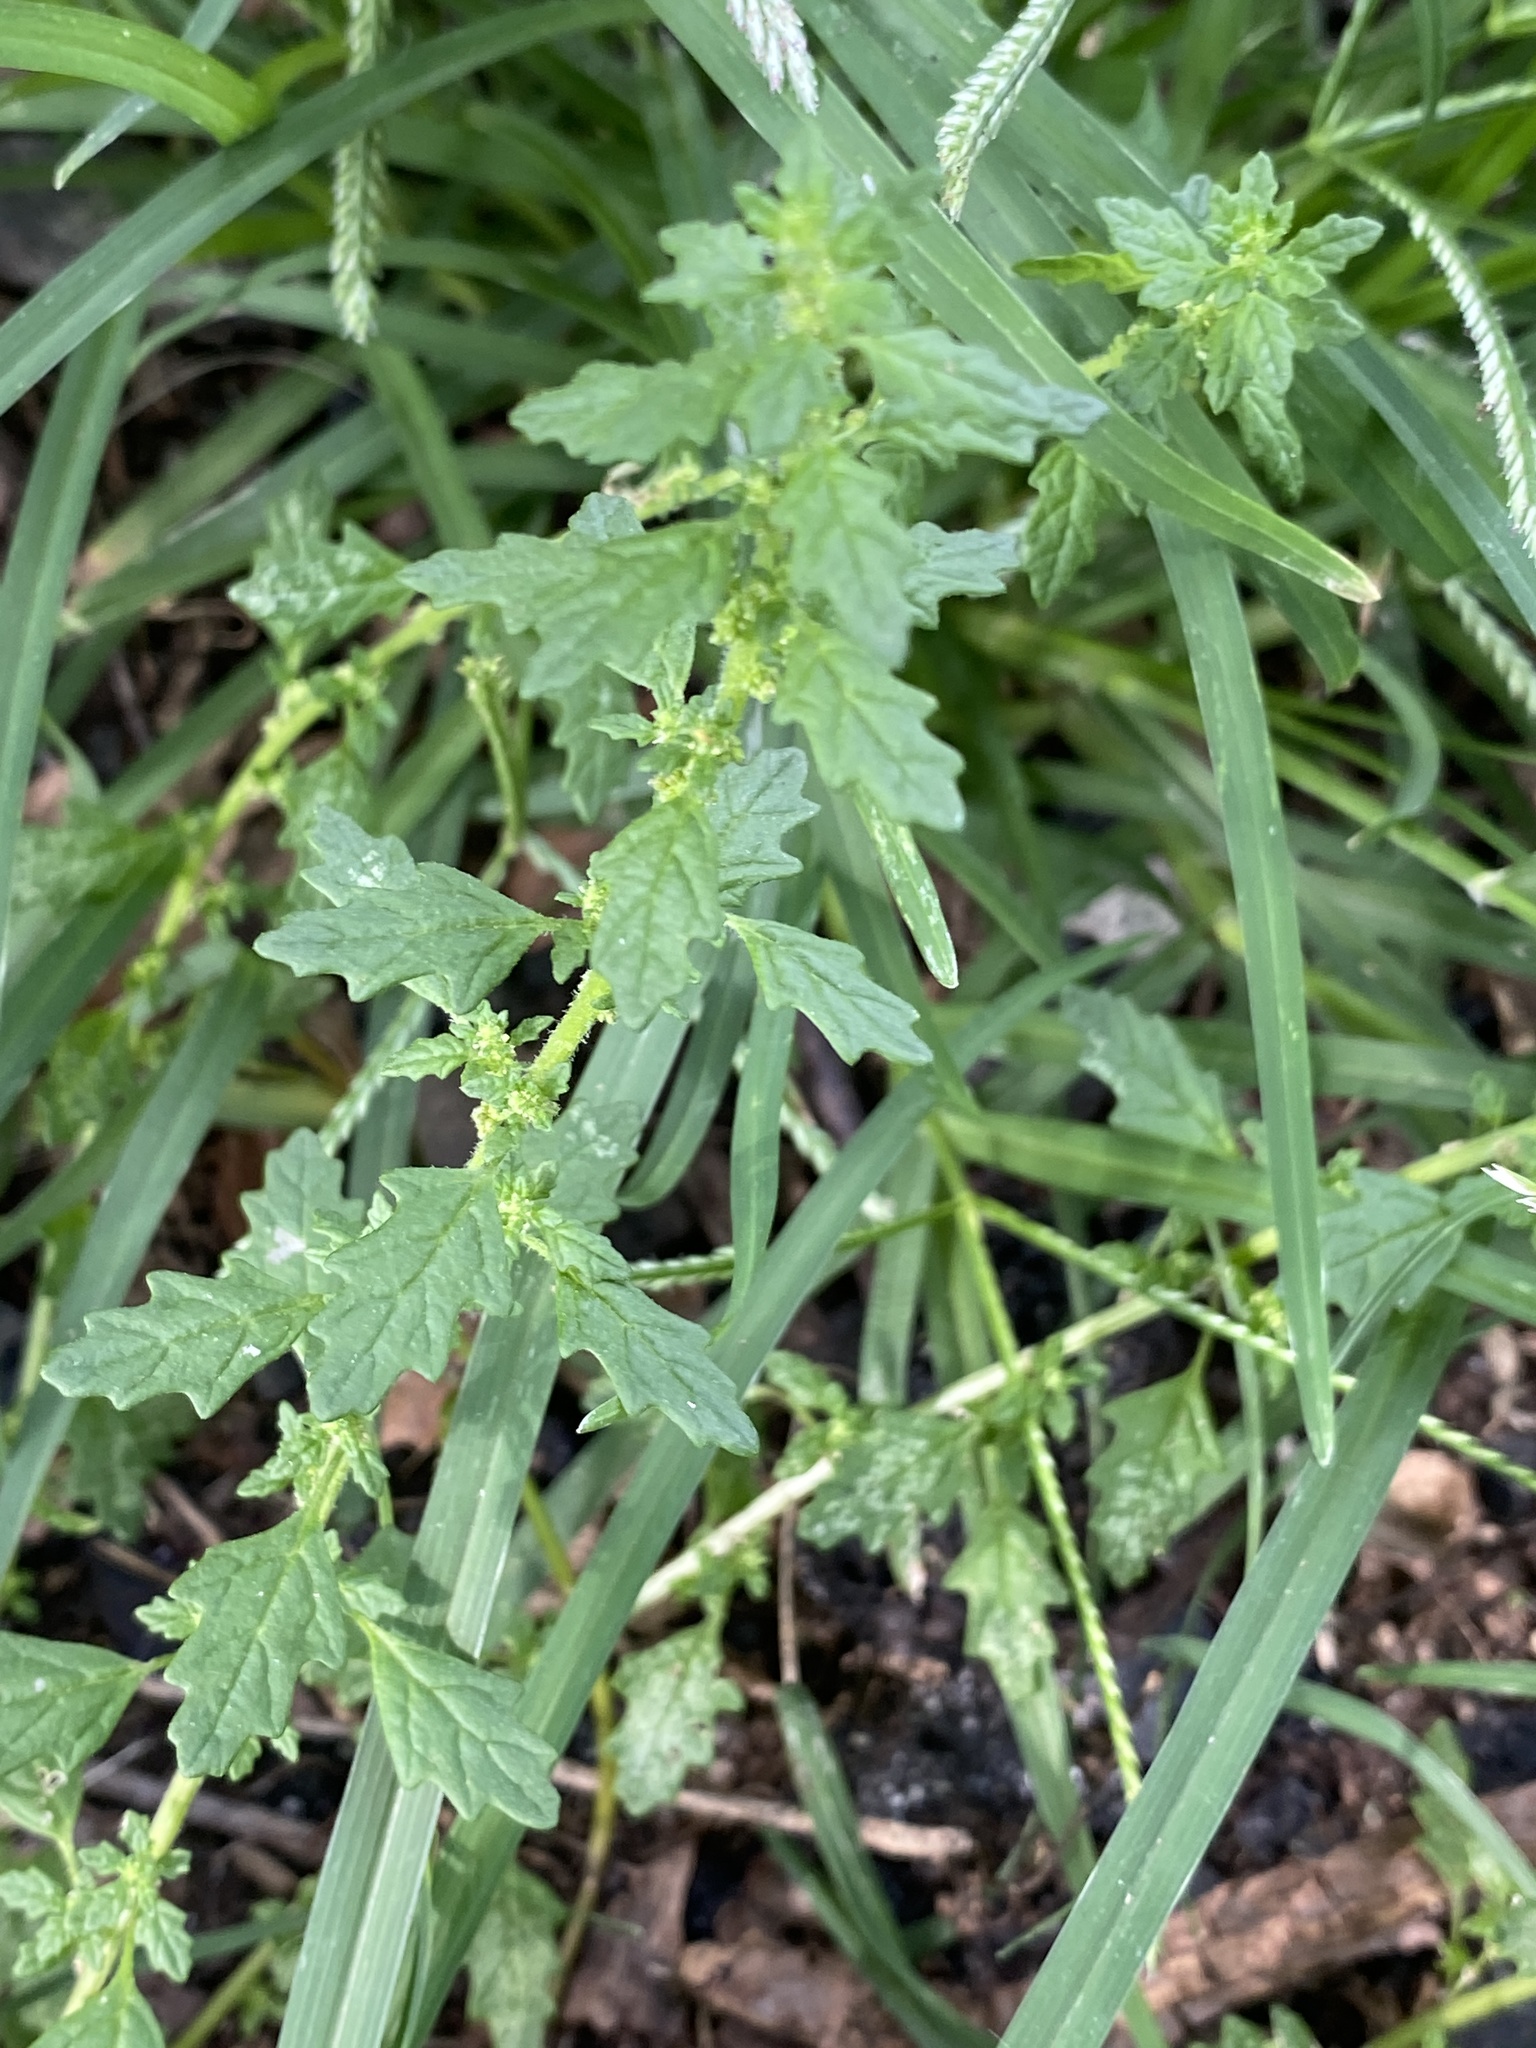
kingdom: Plantae
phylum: Tracheophyta
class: Magnoliopsida
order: Caryophyllales
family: Amaranthaceae
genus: Dysphania
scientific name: Dysphania pumilio
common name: Clammy goosefoot
